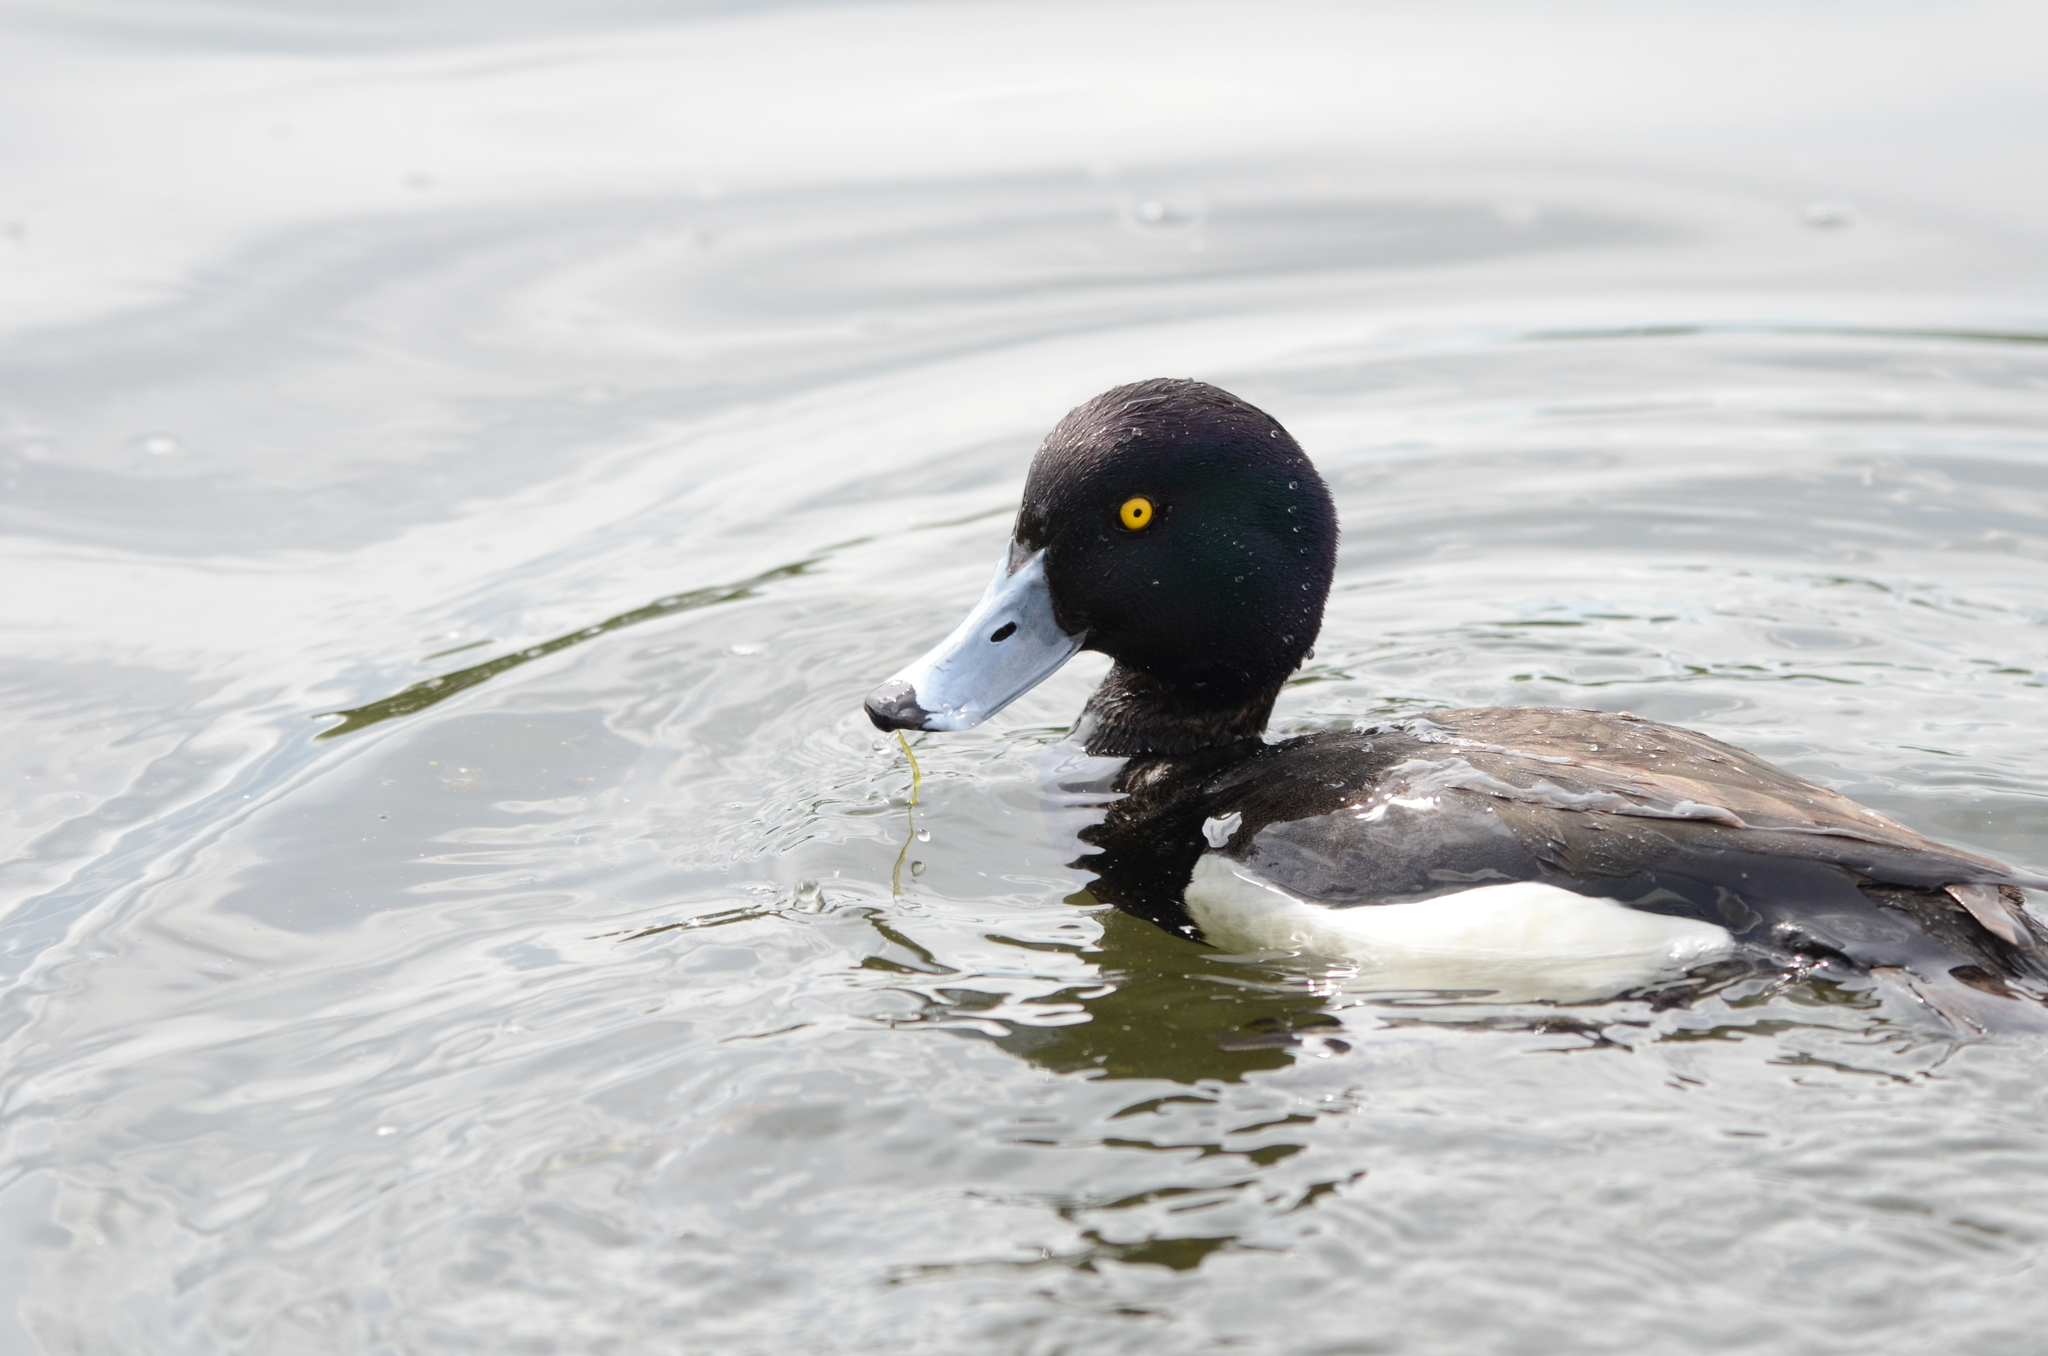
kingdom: Animalia
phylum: Chordata
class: Aves
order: Anseriformes
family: Anatidae
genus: Aythya
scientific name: Aythya fuligula
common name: Tufted duck
